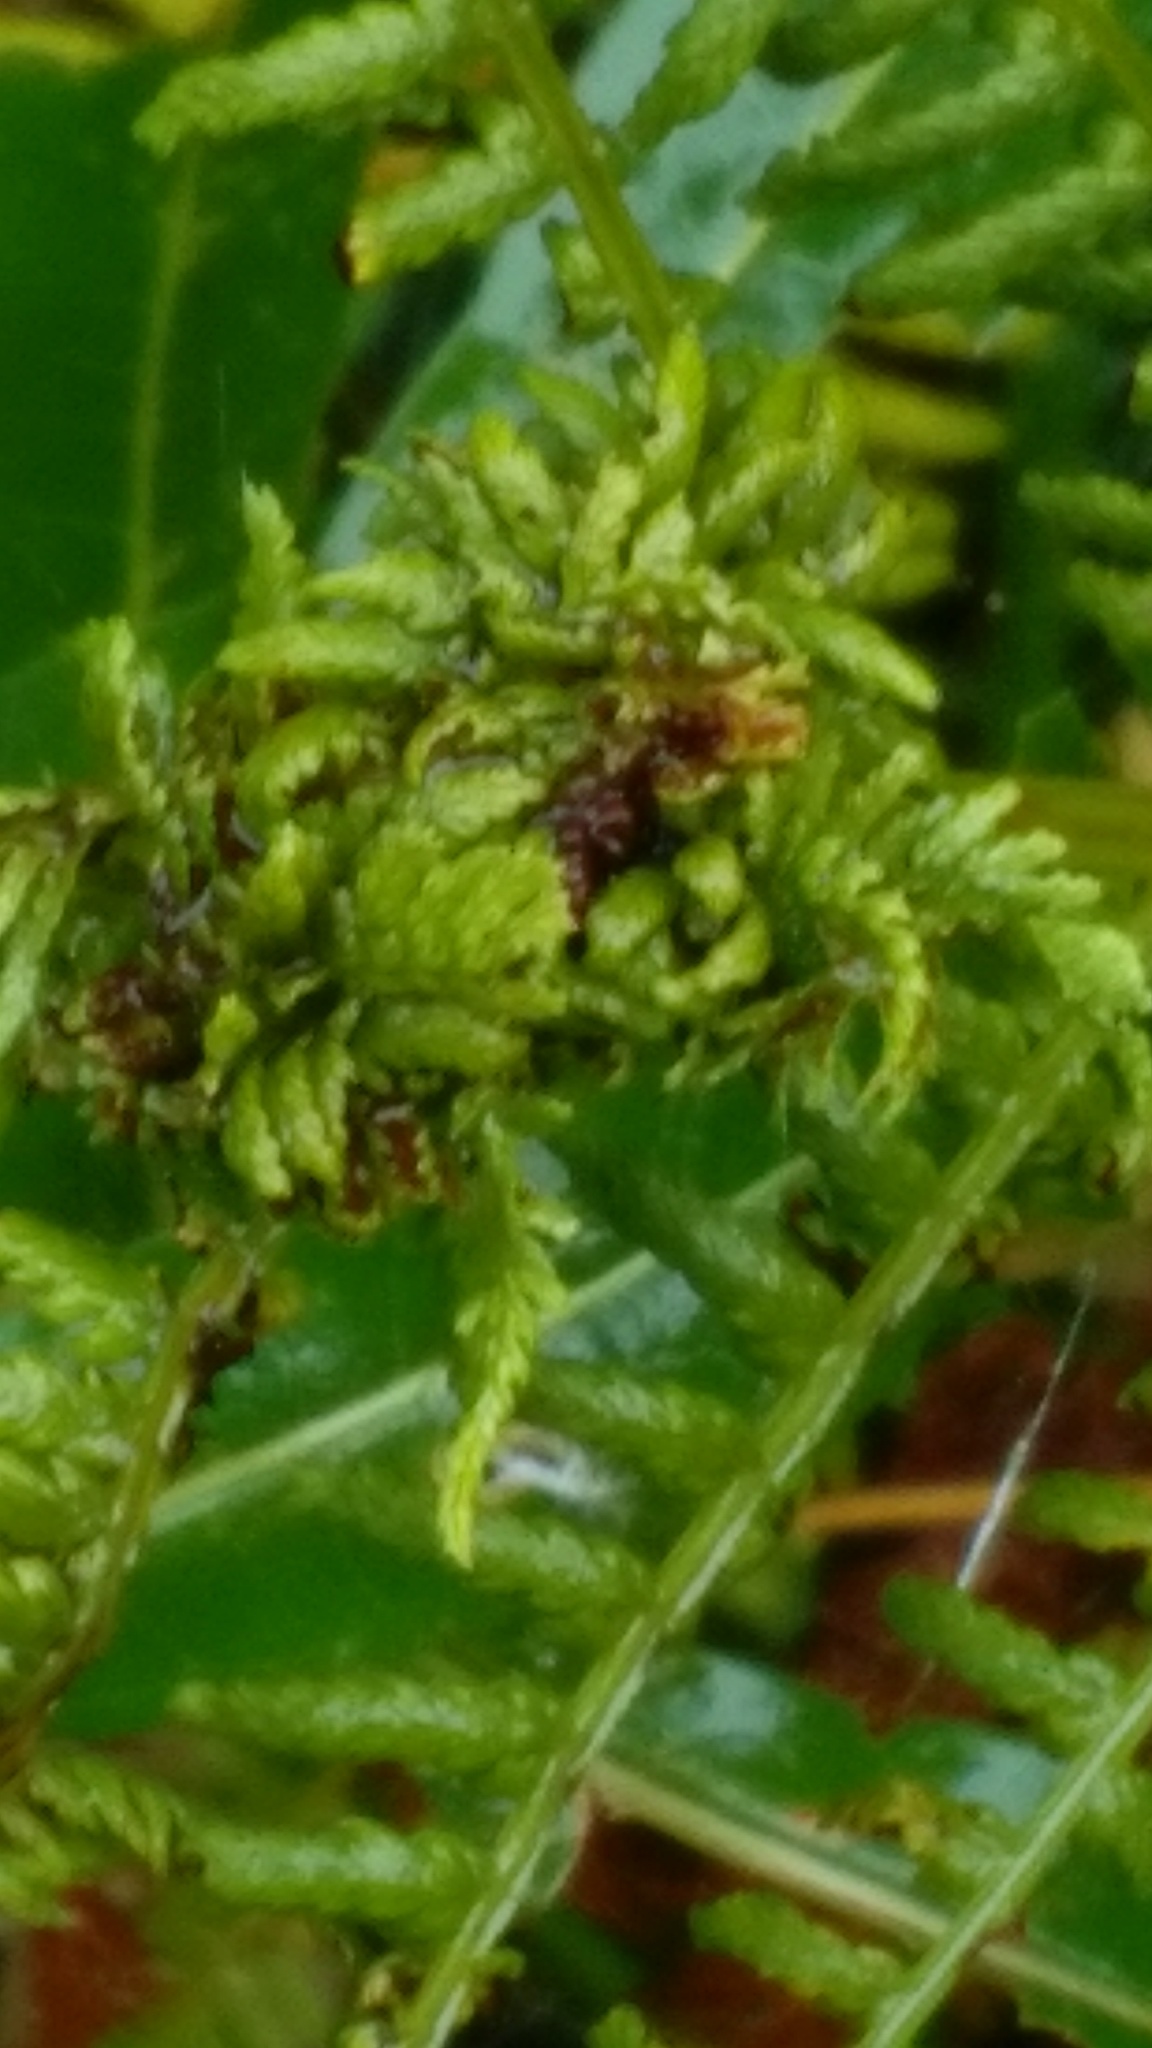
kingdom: Animalia
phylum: Arthropoda
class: Insecta
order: Diptera
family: Anthomyiidae
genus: Chirosia
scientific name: Chirosia betuleti
